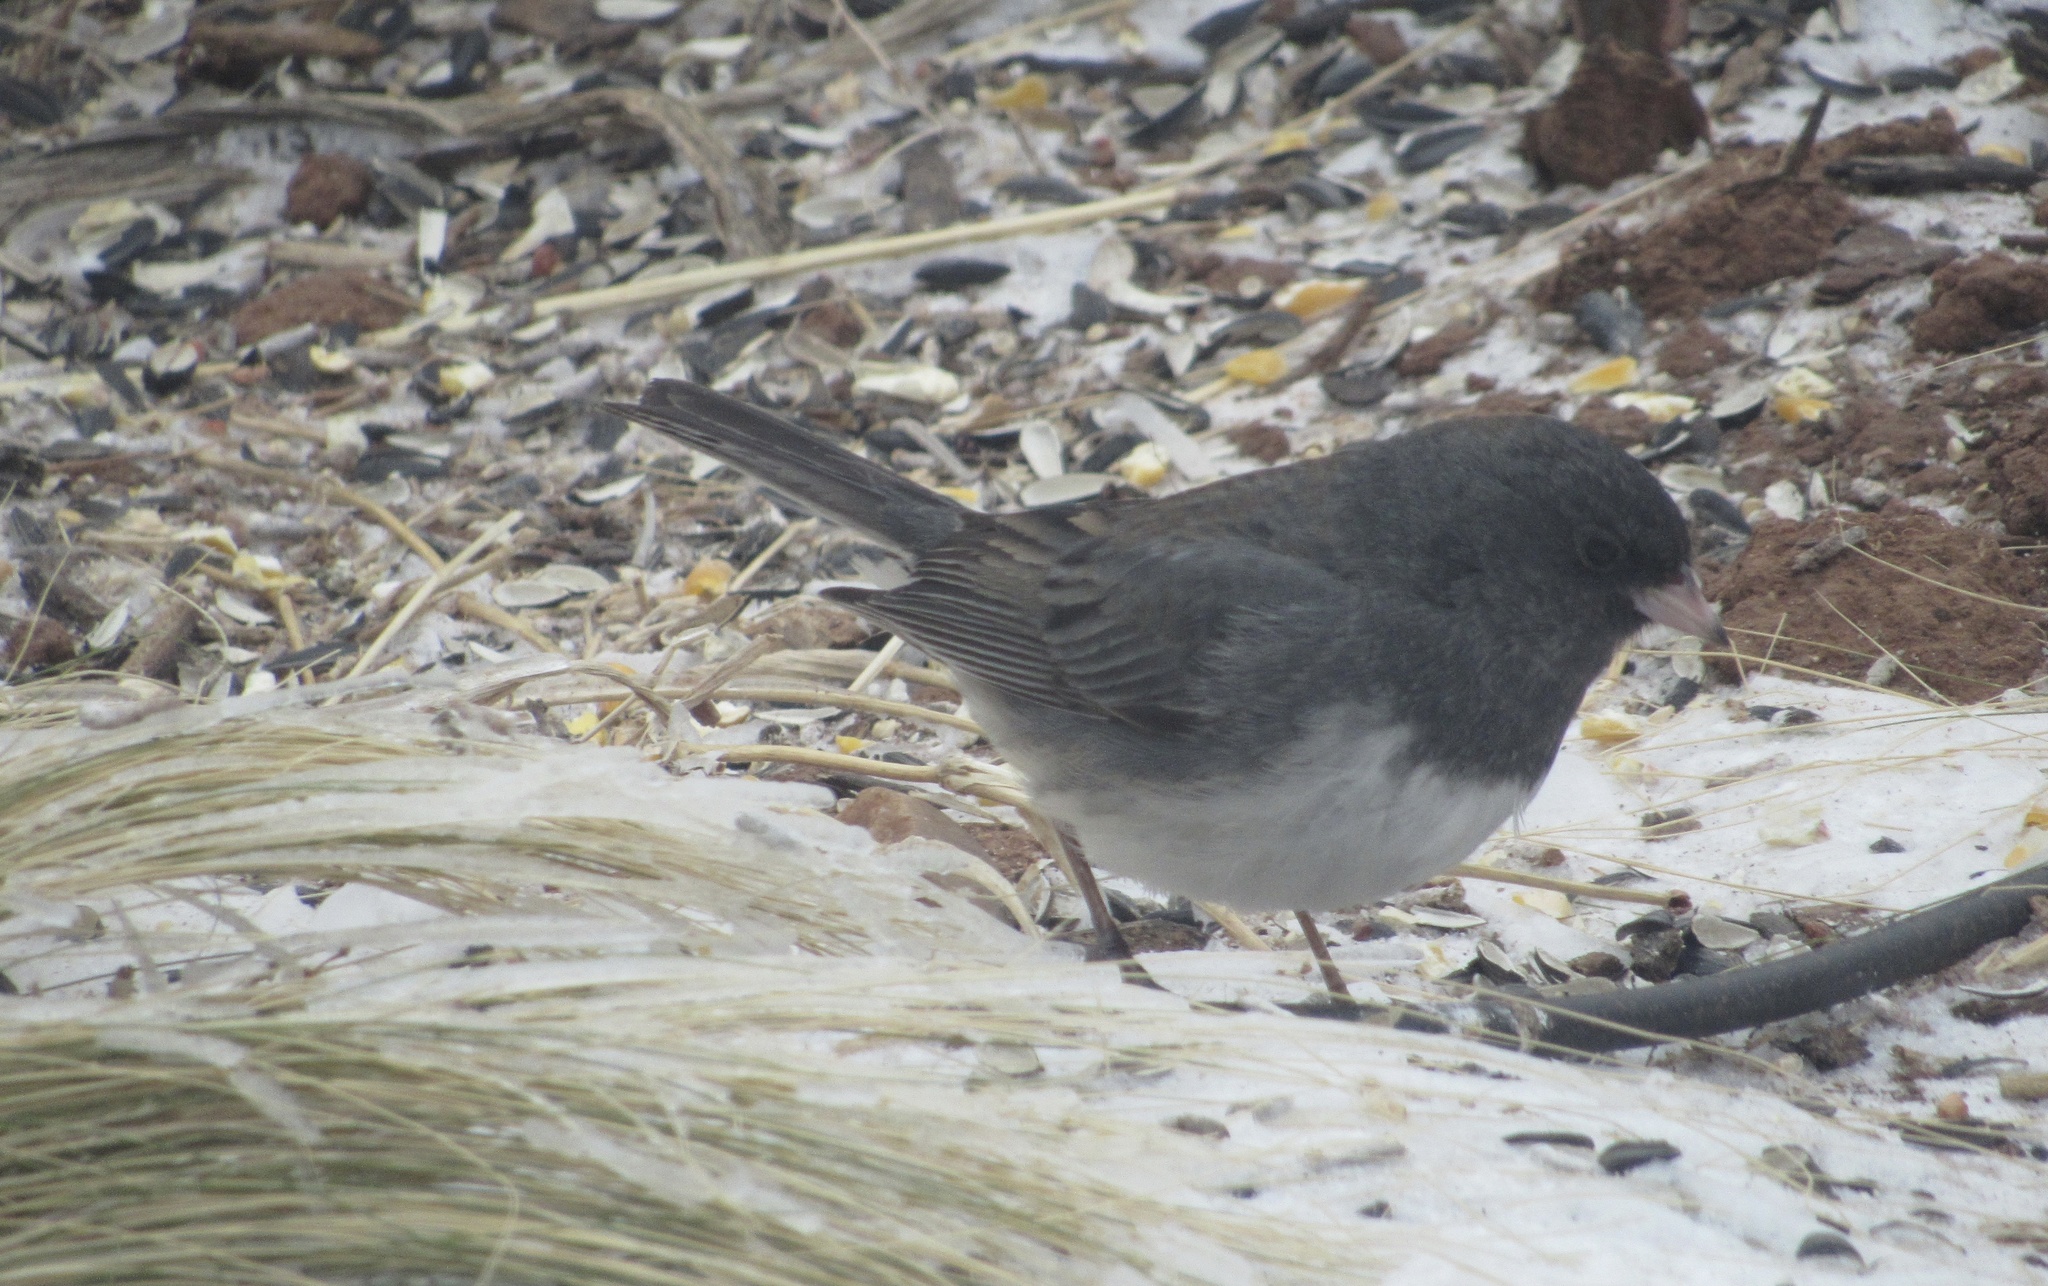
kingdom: Animalia
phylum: Chordata
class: Aves
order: Passeriformes
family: Passerellidae
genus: Junco
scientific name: Junco hyemalis
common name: Dark-eyed junco
